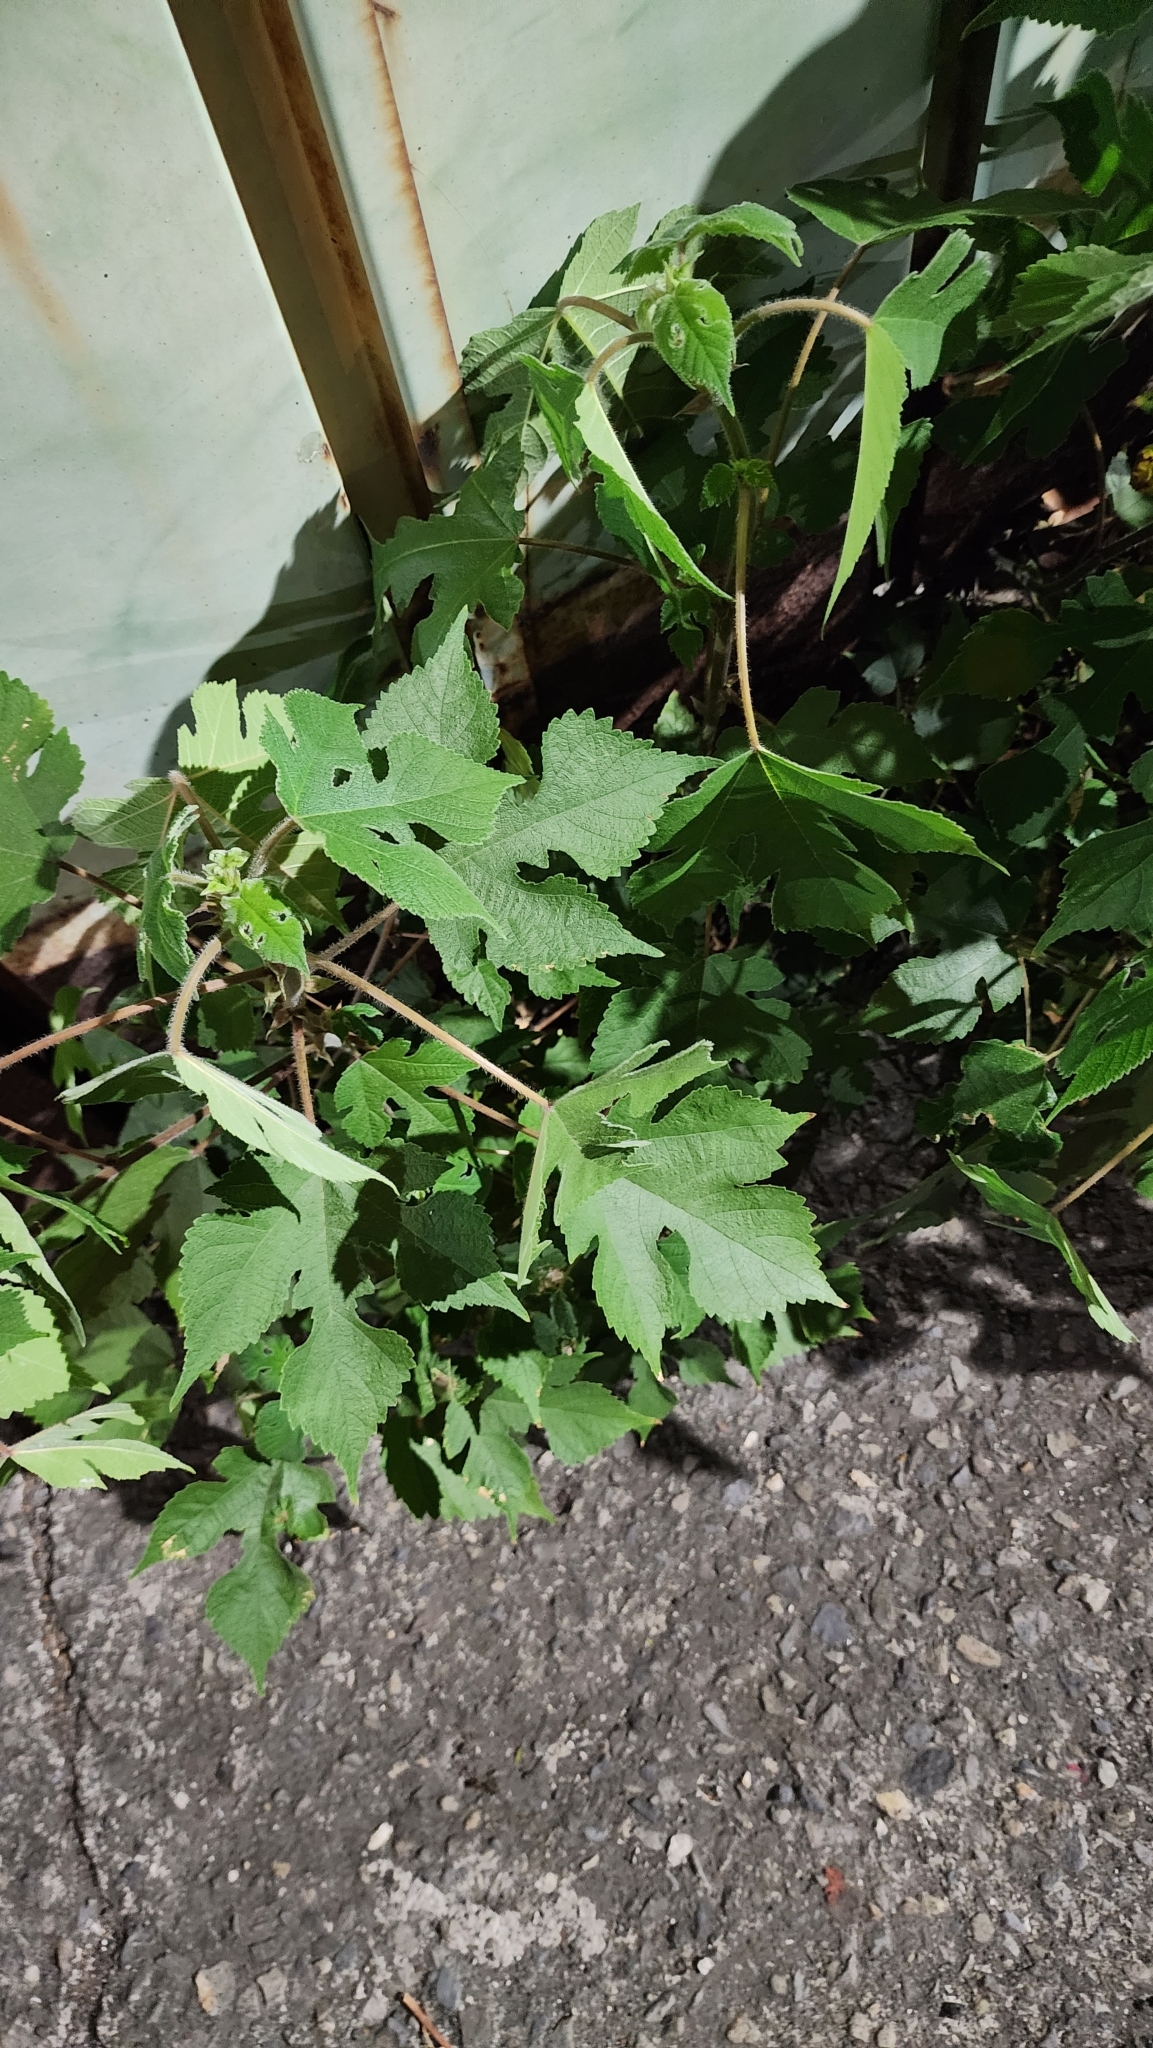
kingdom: Plantae
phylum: Tracheophyta
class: Magnoliopsida
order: Rosales
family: Moraceae
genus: Broussonetia
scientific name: Broussonetia papyrifera
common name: Paper mulberry
